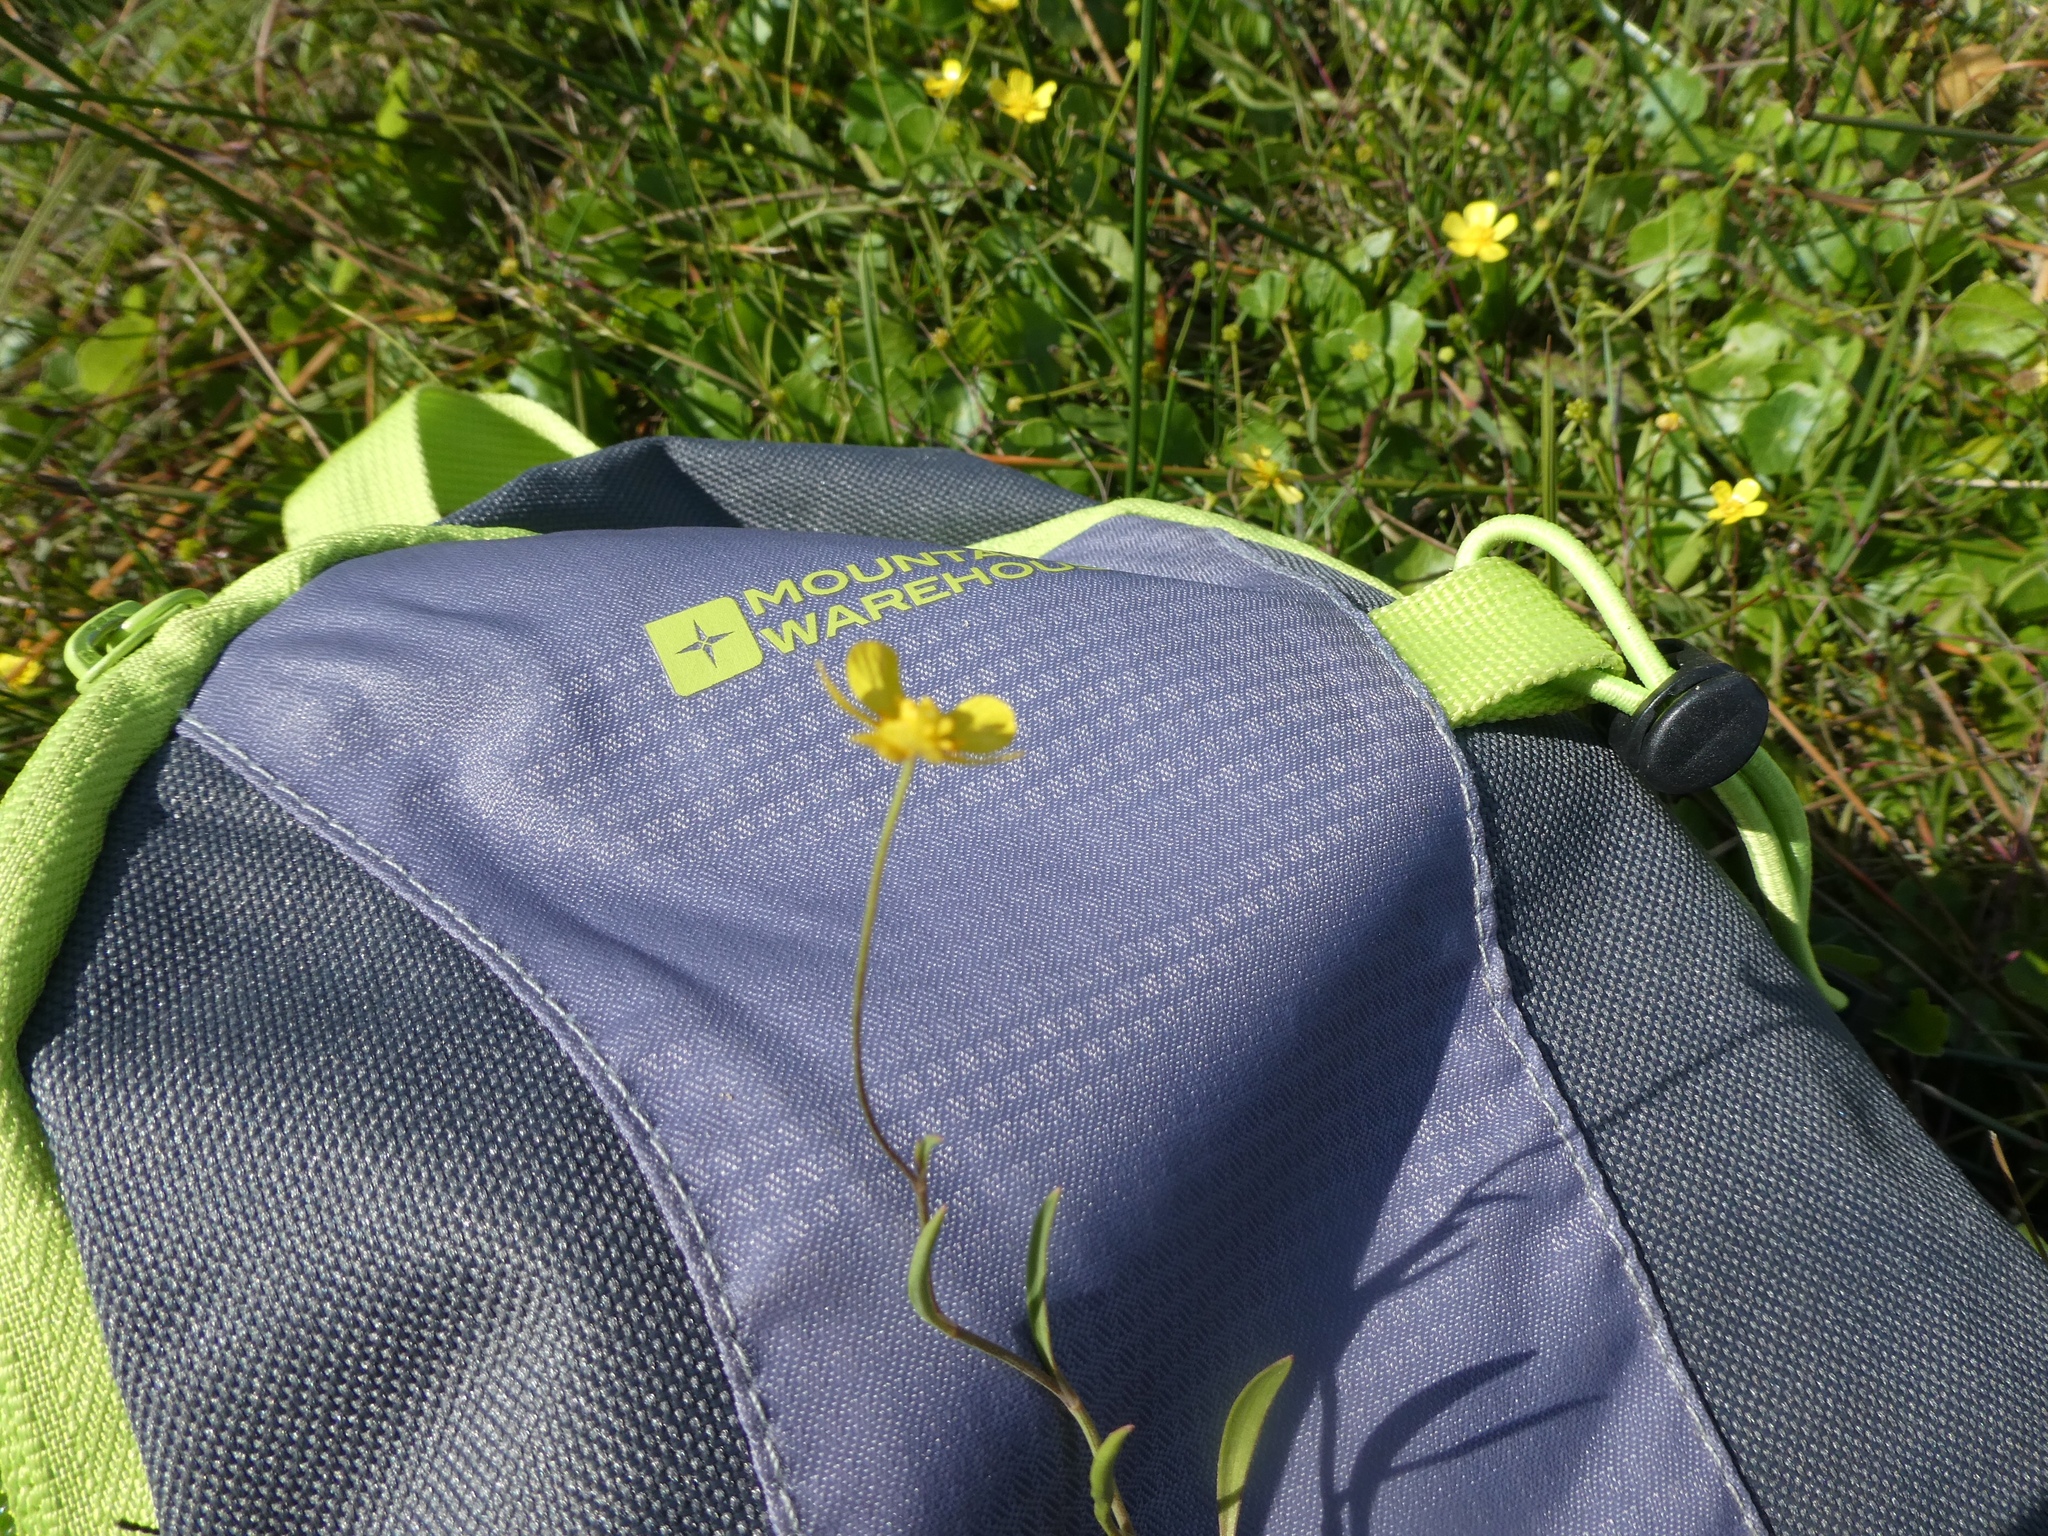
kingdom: Plantae
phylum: Tracheophyta
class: Magnoliopsida
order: Ranunculales
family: Ranunculaceae
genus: Ranunculus
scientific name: Ranunculus flammula
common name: Lesser spearwort
